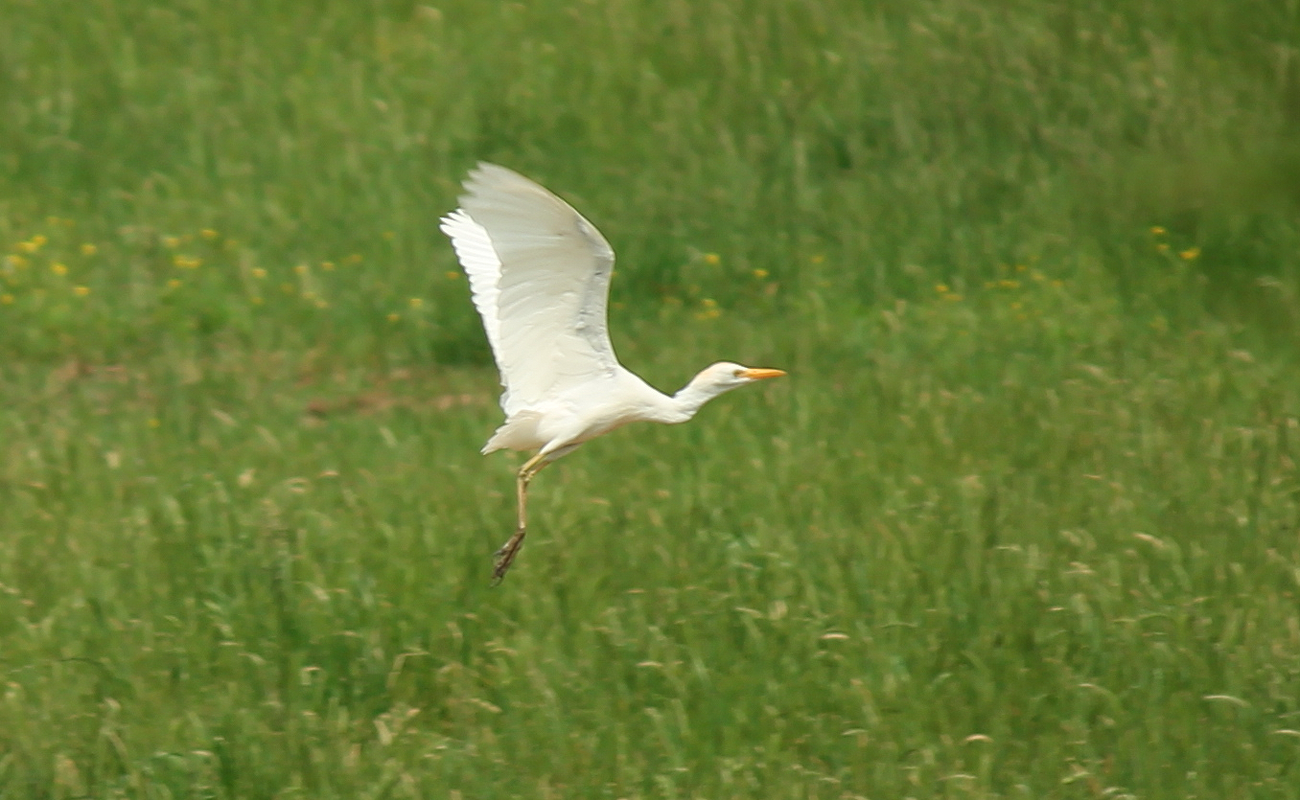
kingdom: Animalia
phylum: Chordata
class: Aves
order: Pelecaniformes
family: Ardeidae
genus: Bubulcus
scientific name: Bubulcus ibis
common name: Cattle egret
